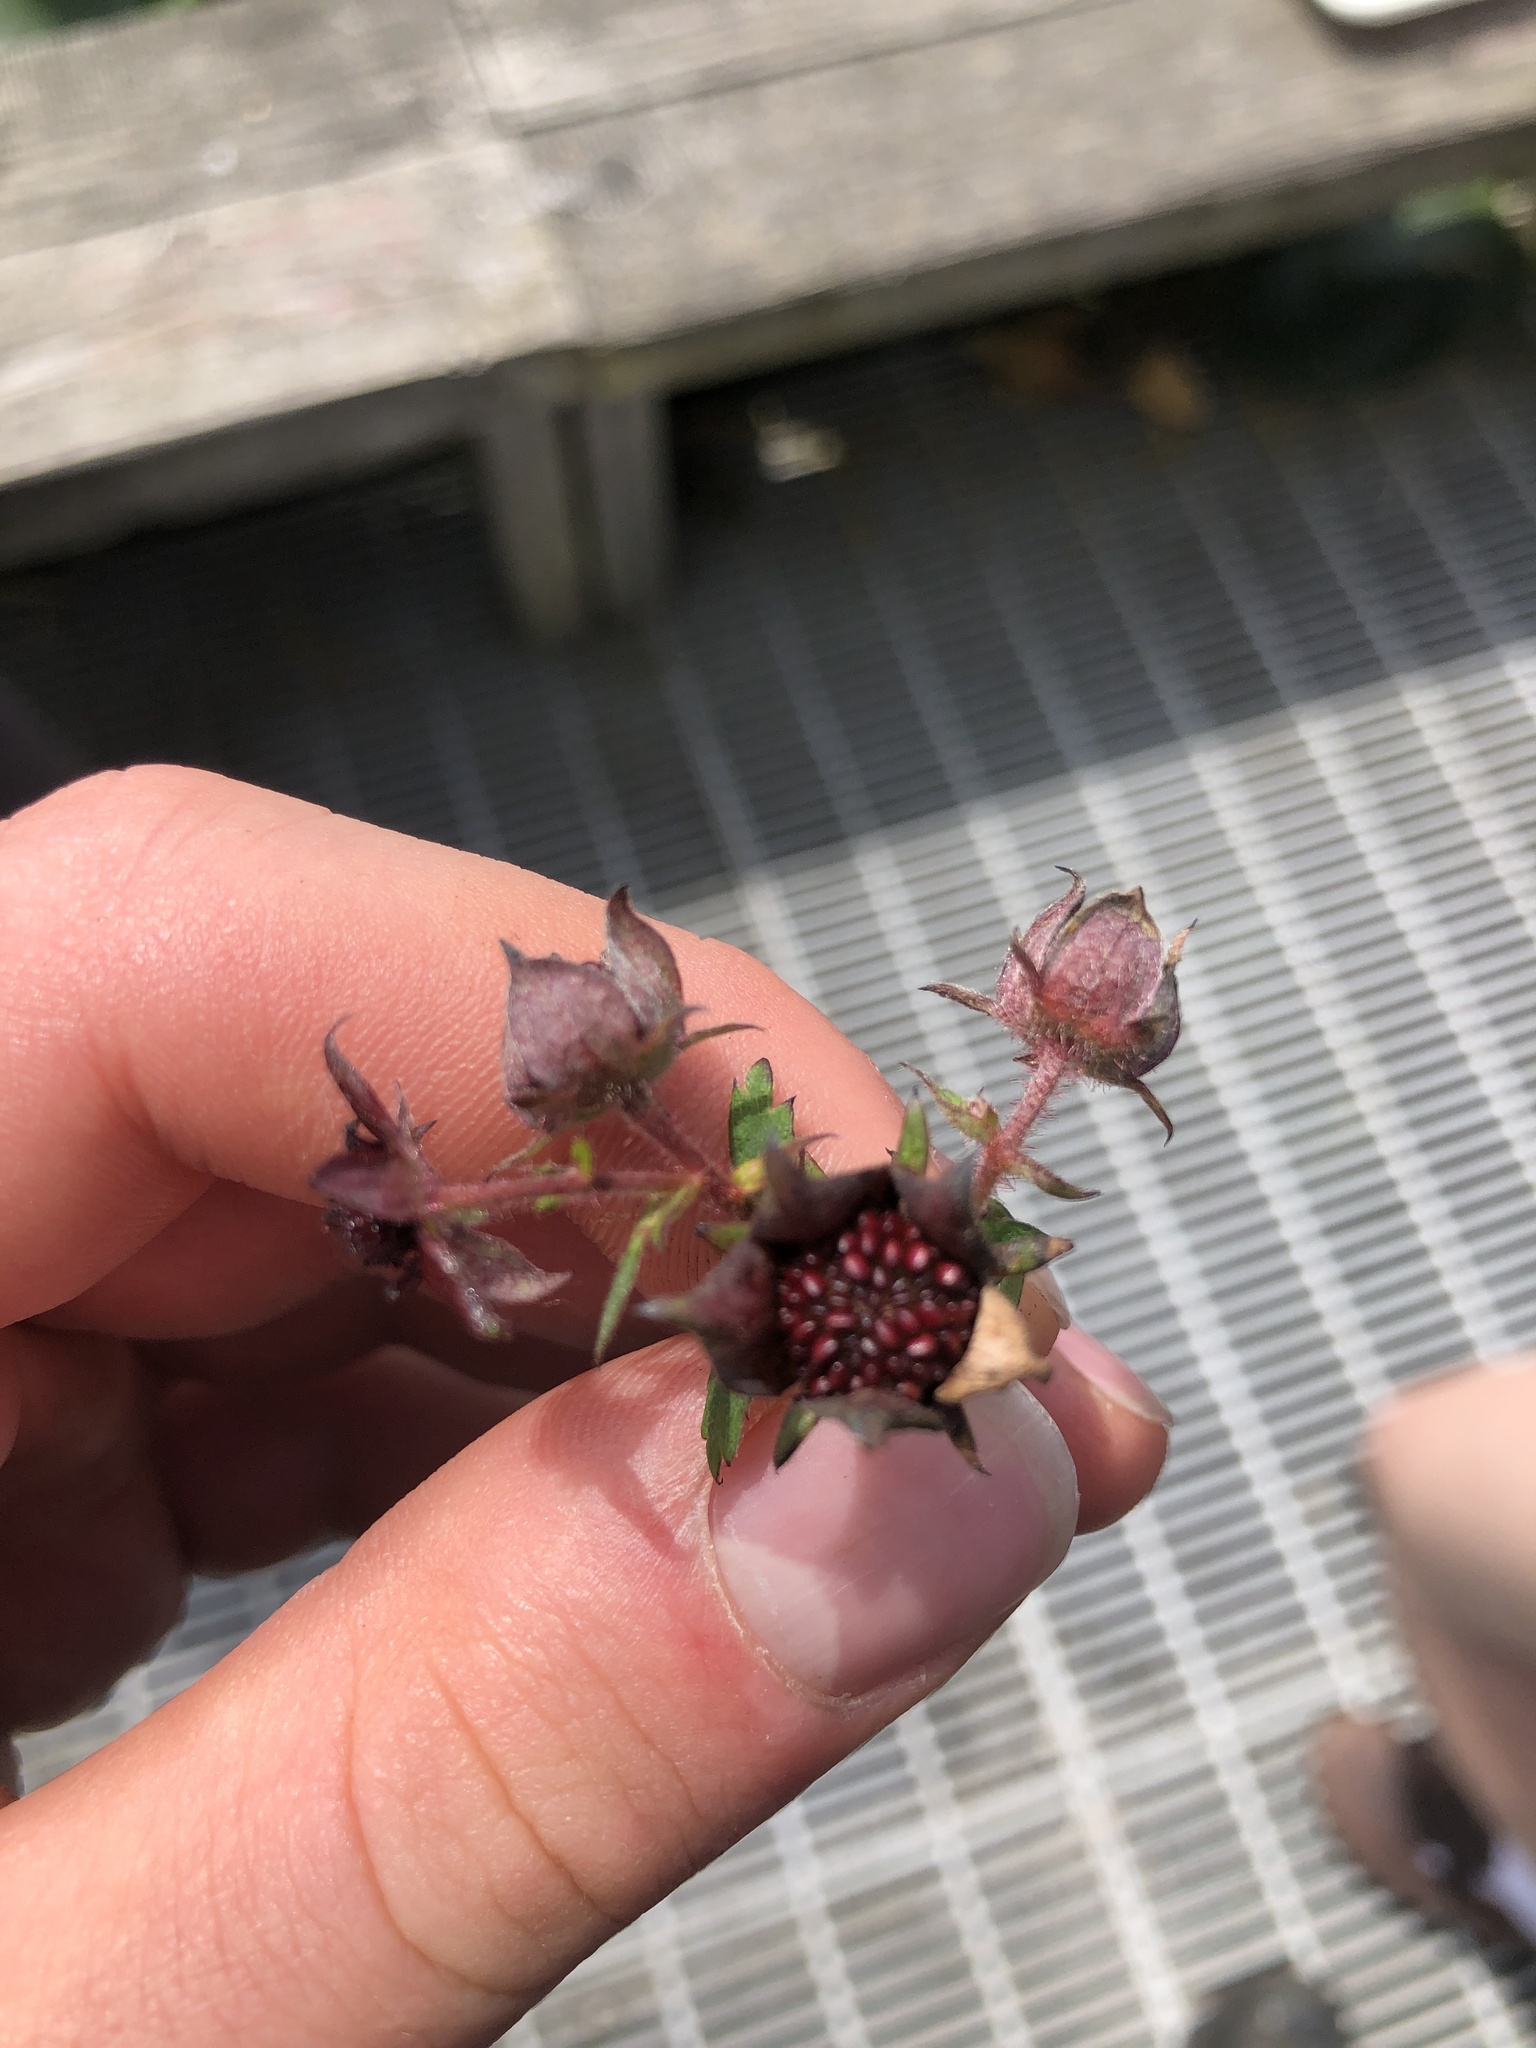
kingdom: Plantae
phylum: Tracheophyta
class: Magnoliopsida
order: Rosales
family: Rosaceae
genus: Comarum
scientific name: Comarum palustre
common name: Marsh cinquefoil
